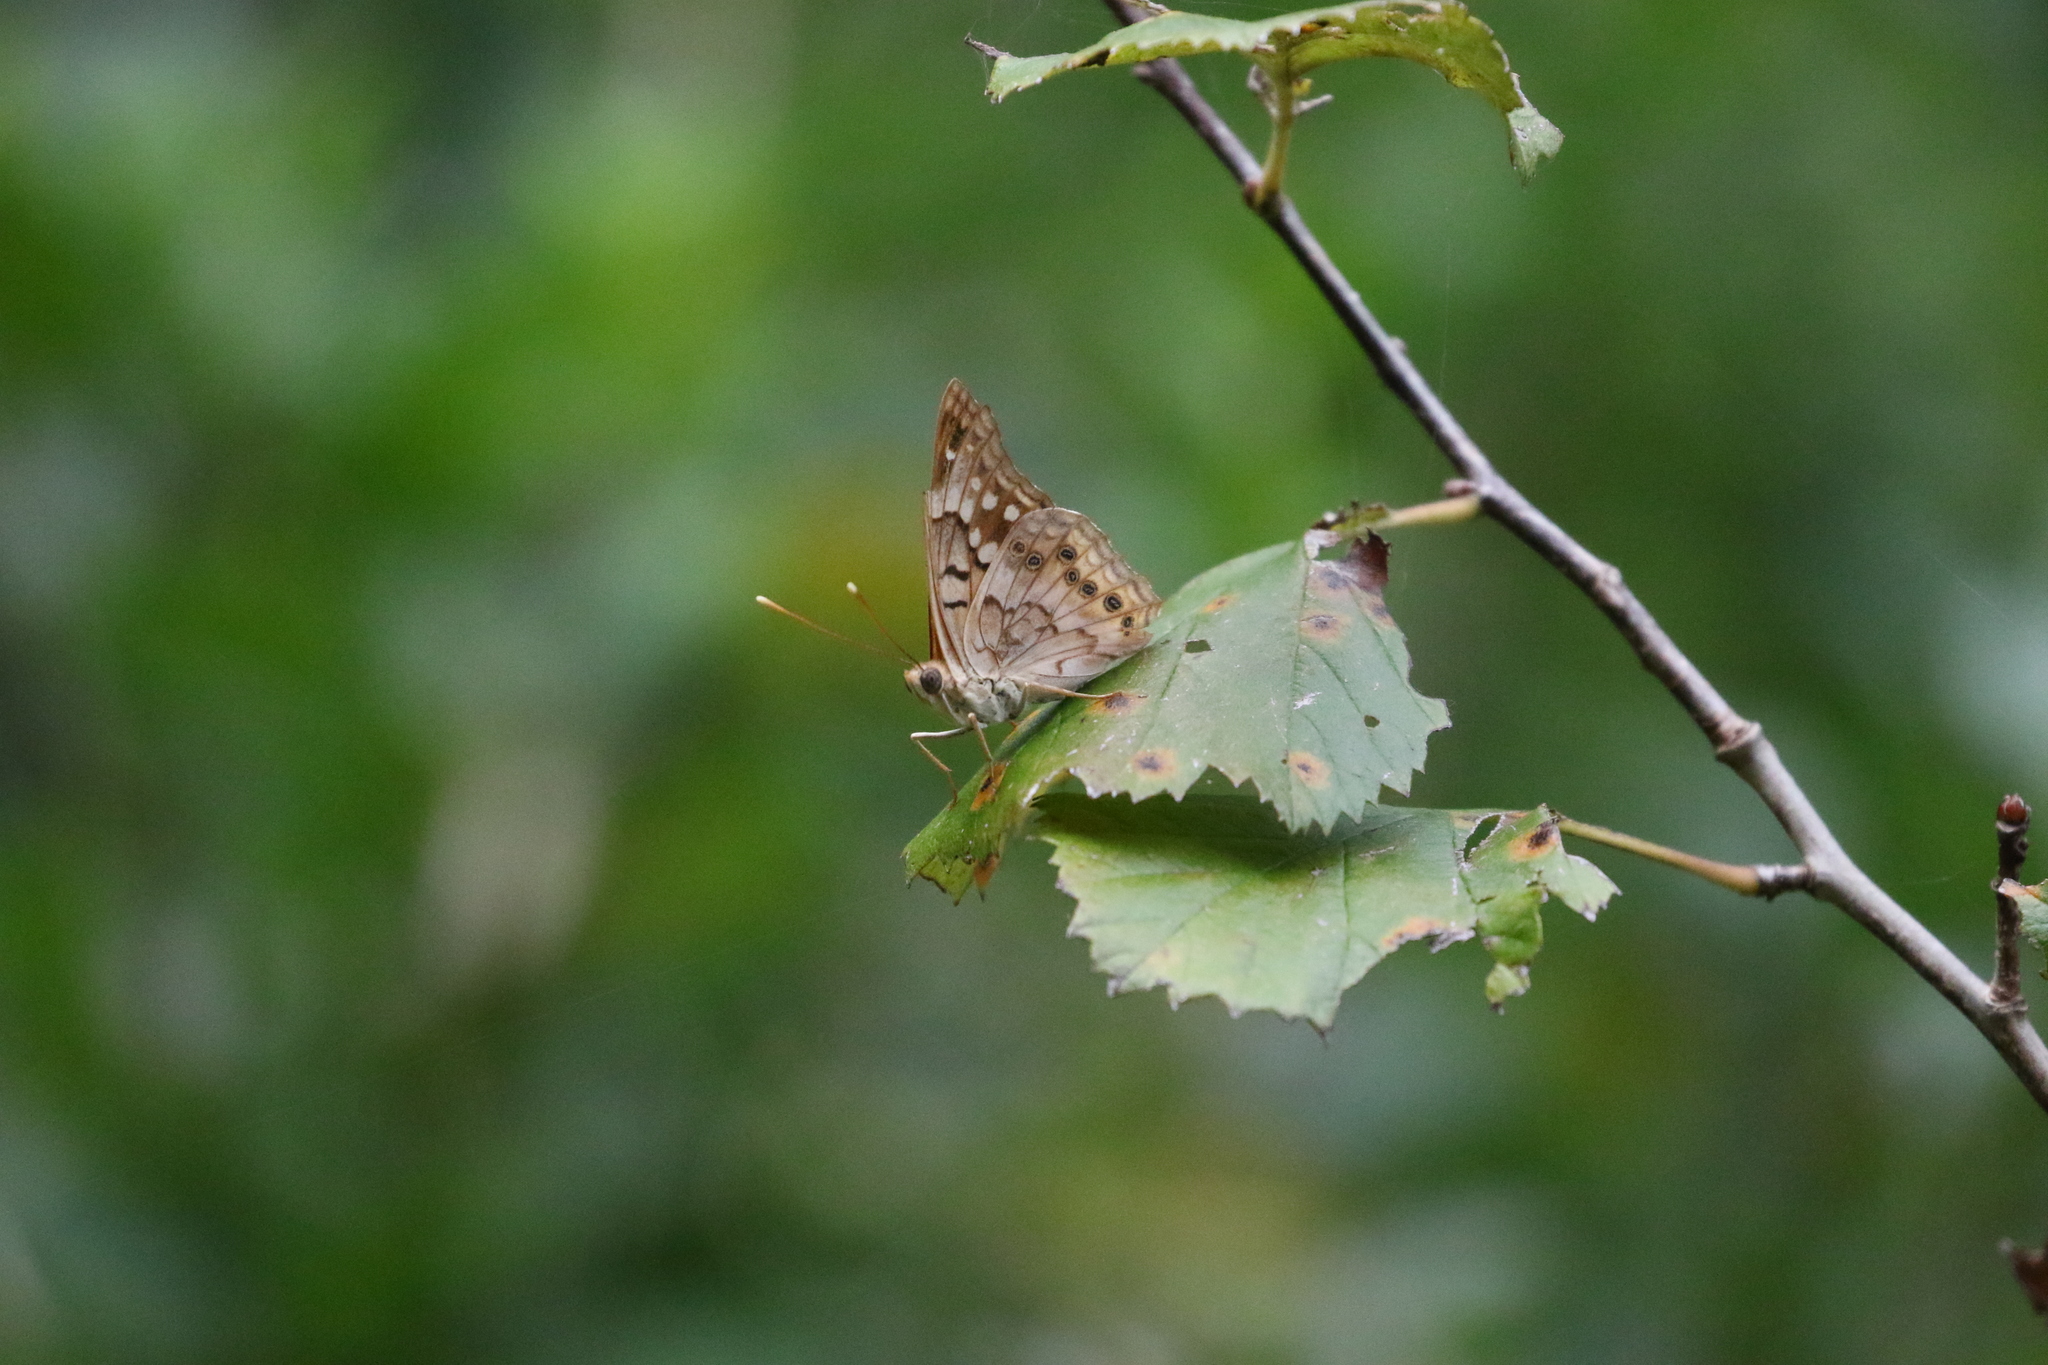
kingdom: Animalia
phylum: Arthropoda
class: Insecta
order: Lepidoptera
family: Nymphalidae
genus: Asterocampa
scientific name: Asterocampa clyton
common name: Tawny emperor
